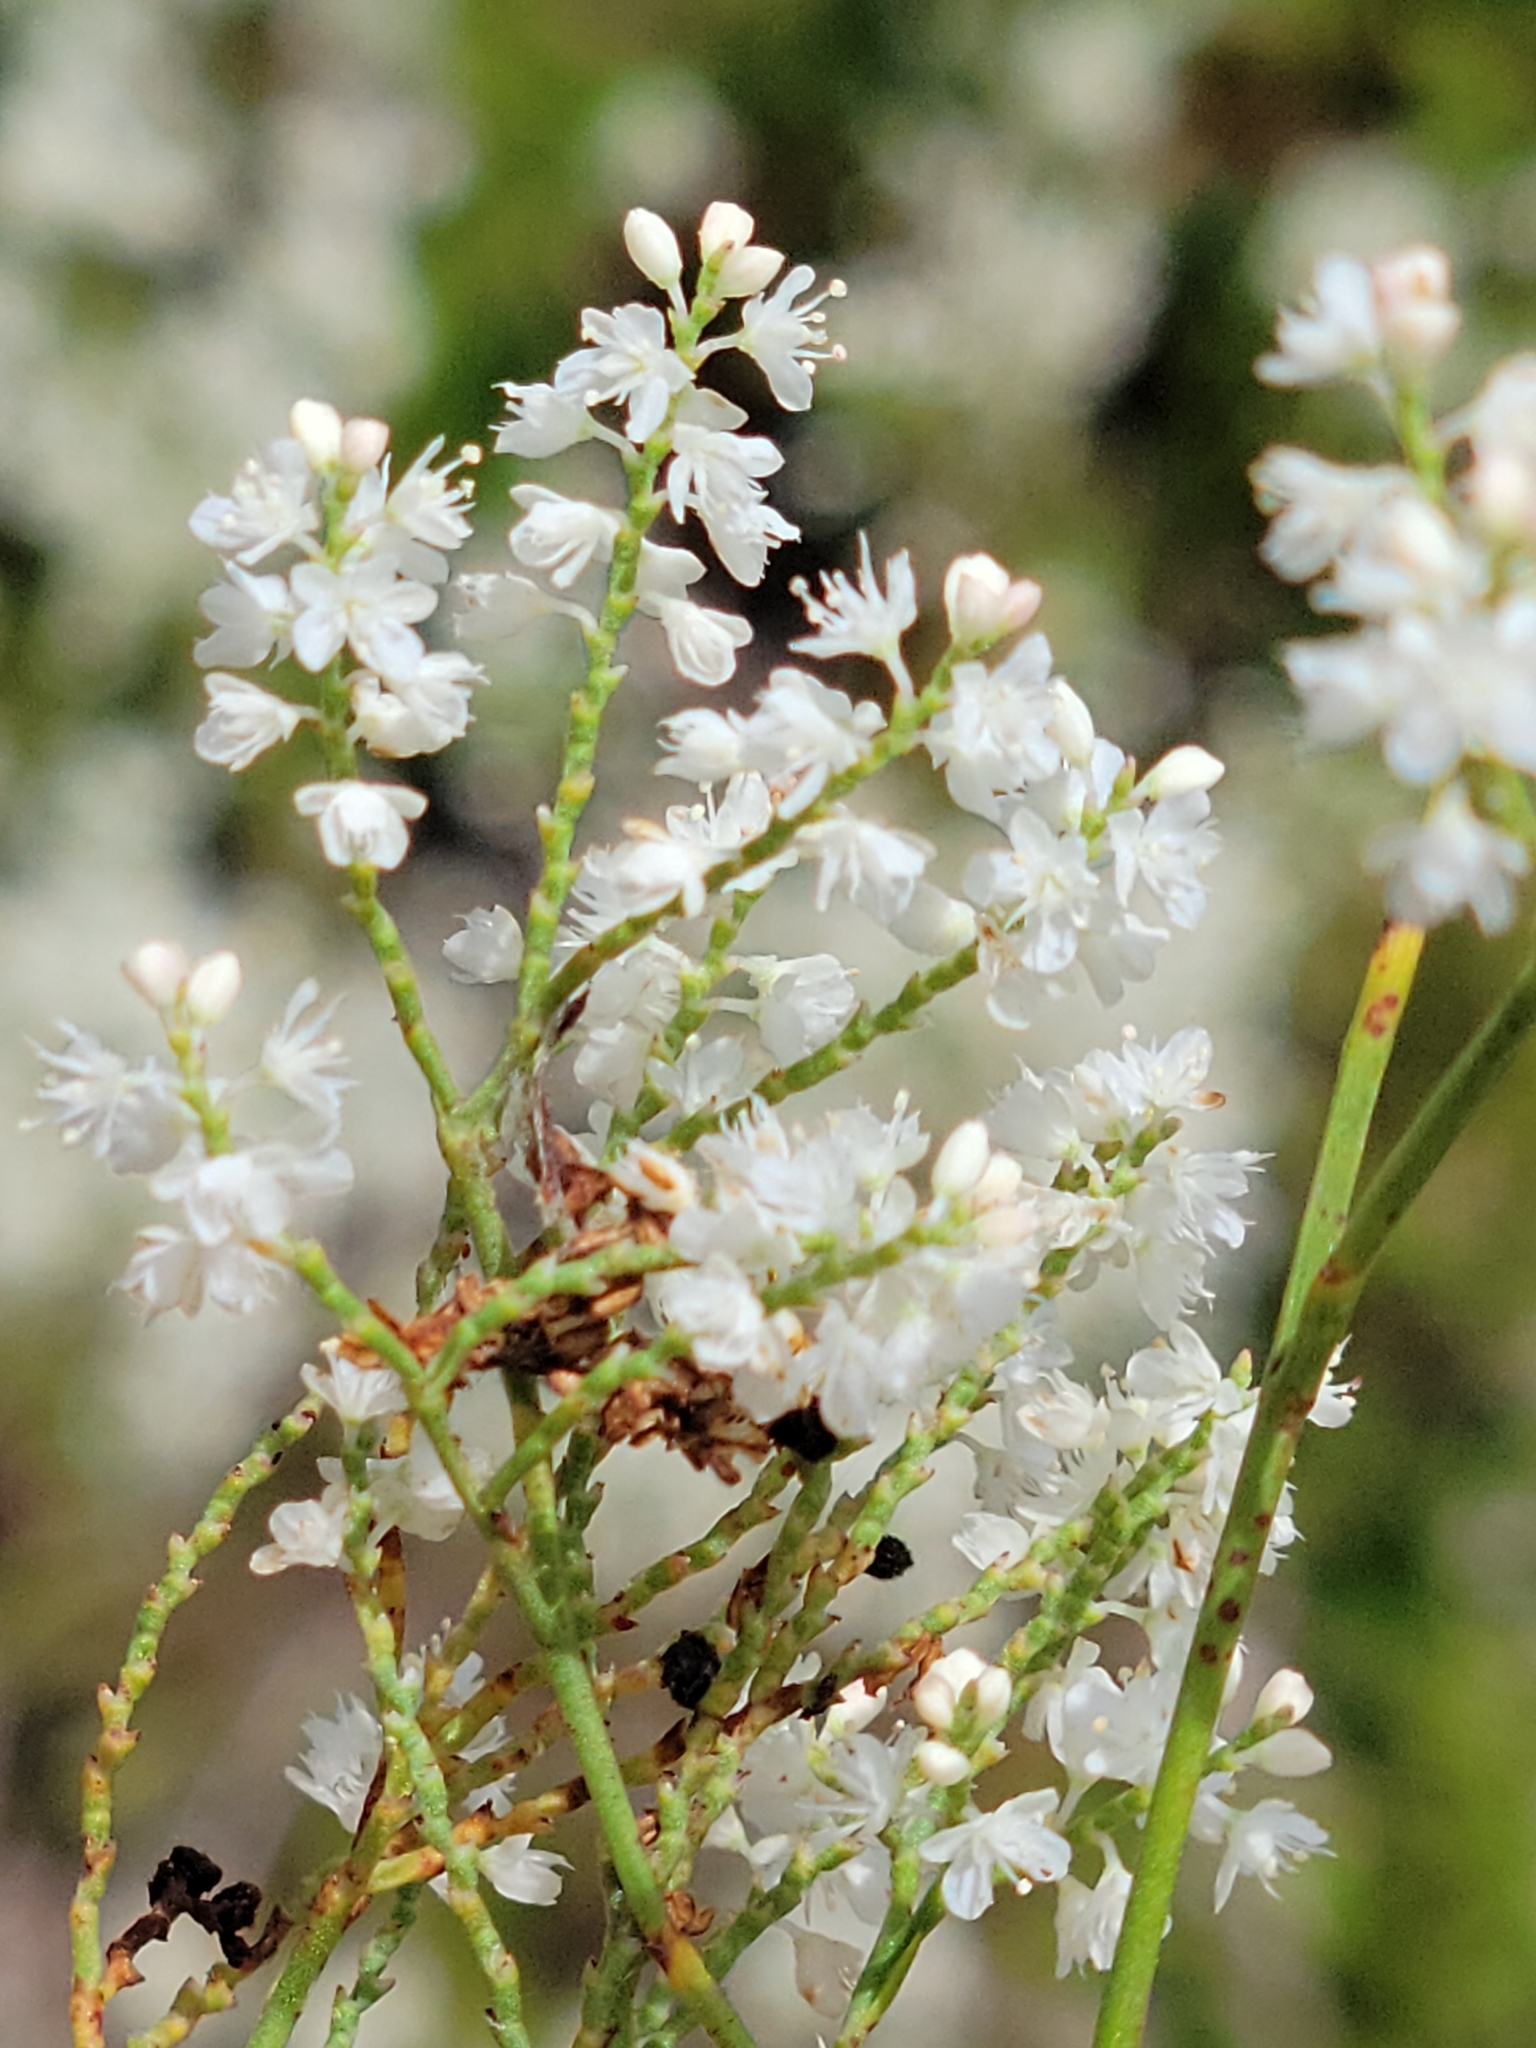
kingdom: Plantae
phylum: Tracheophyta
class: Magnoliopsida
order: Caryophyllales
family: Polygonaceae
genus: Polygonella
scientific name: Polygonella polygama
